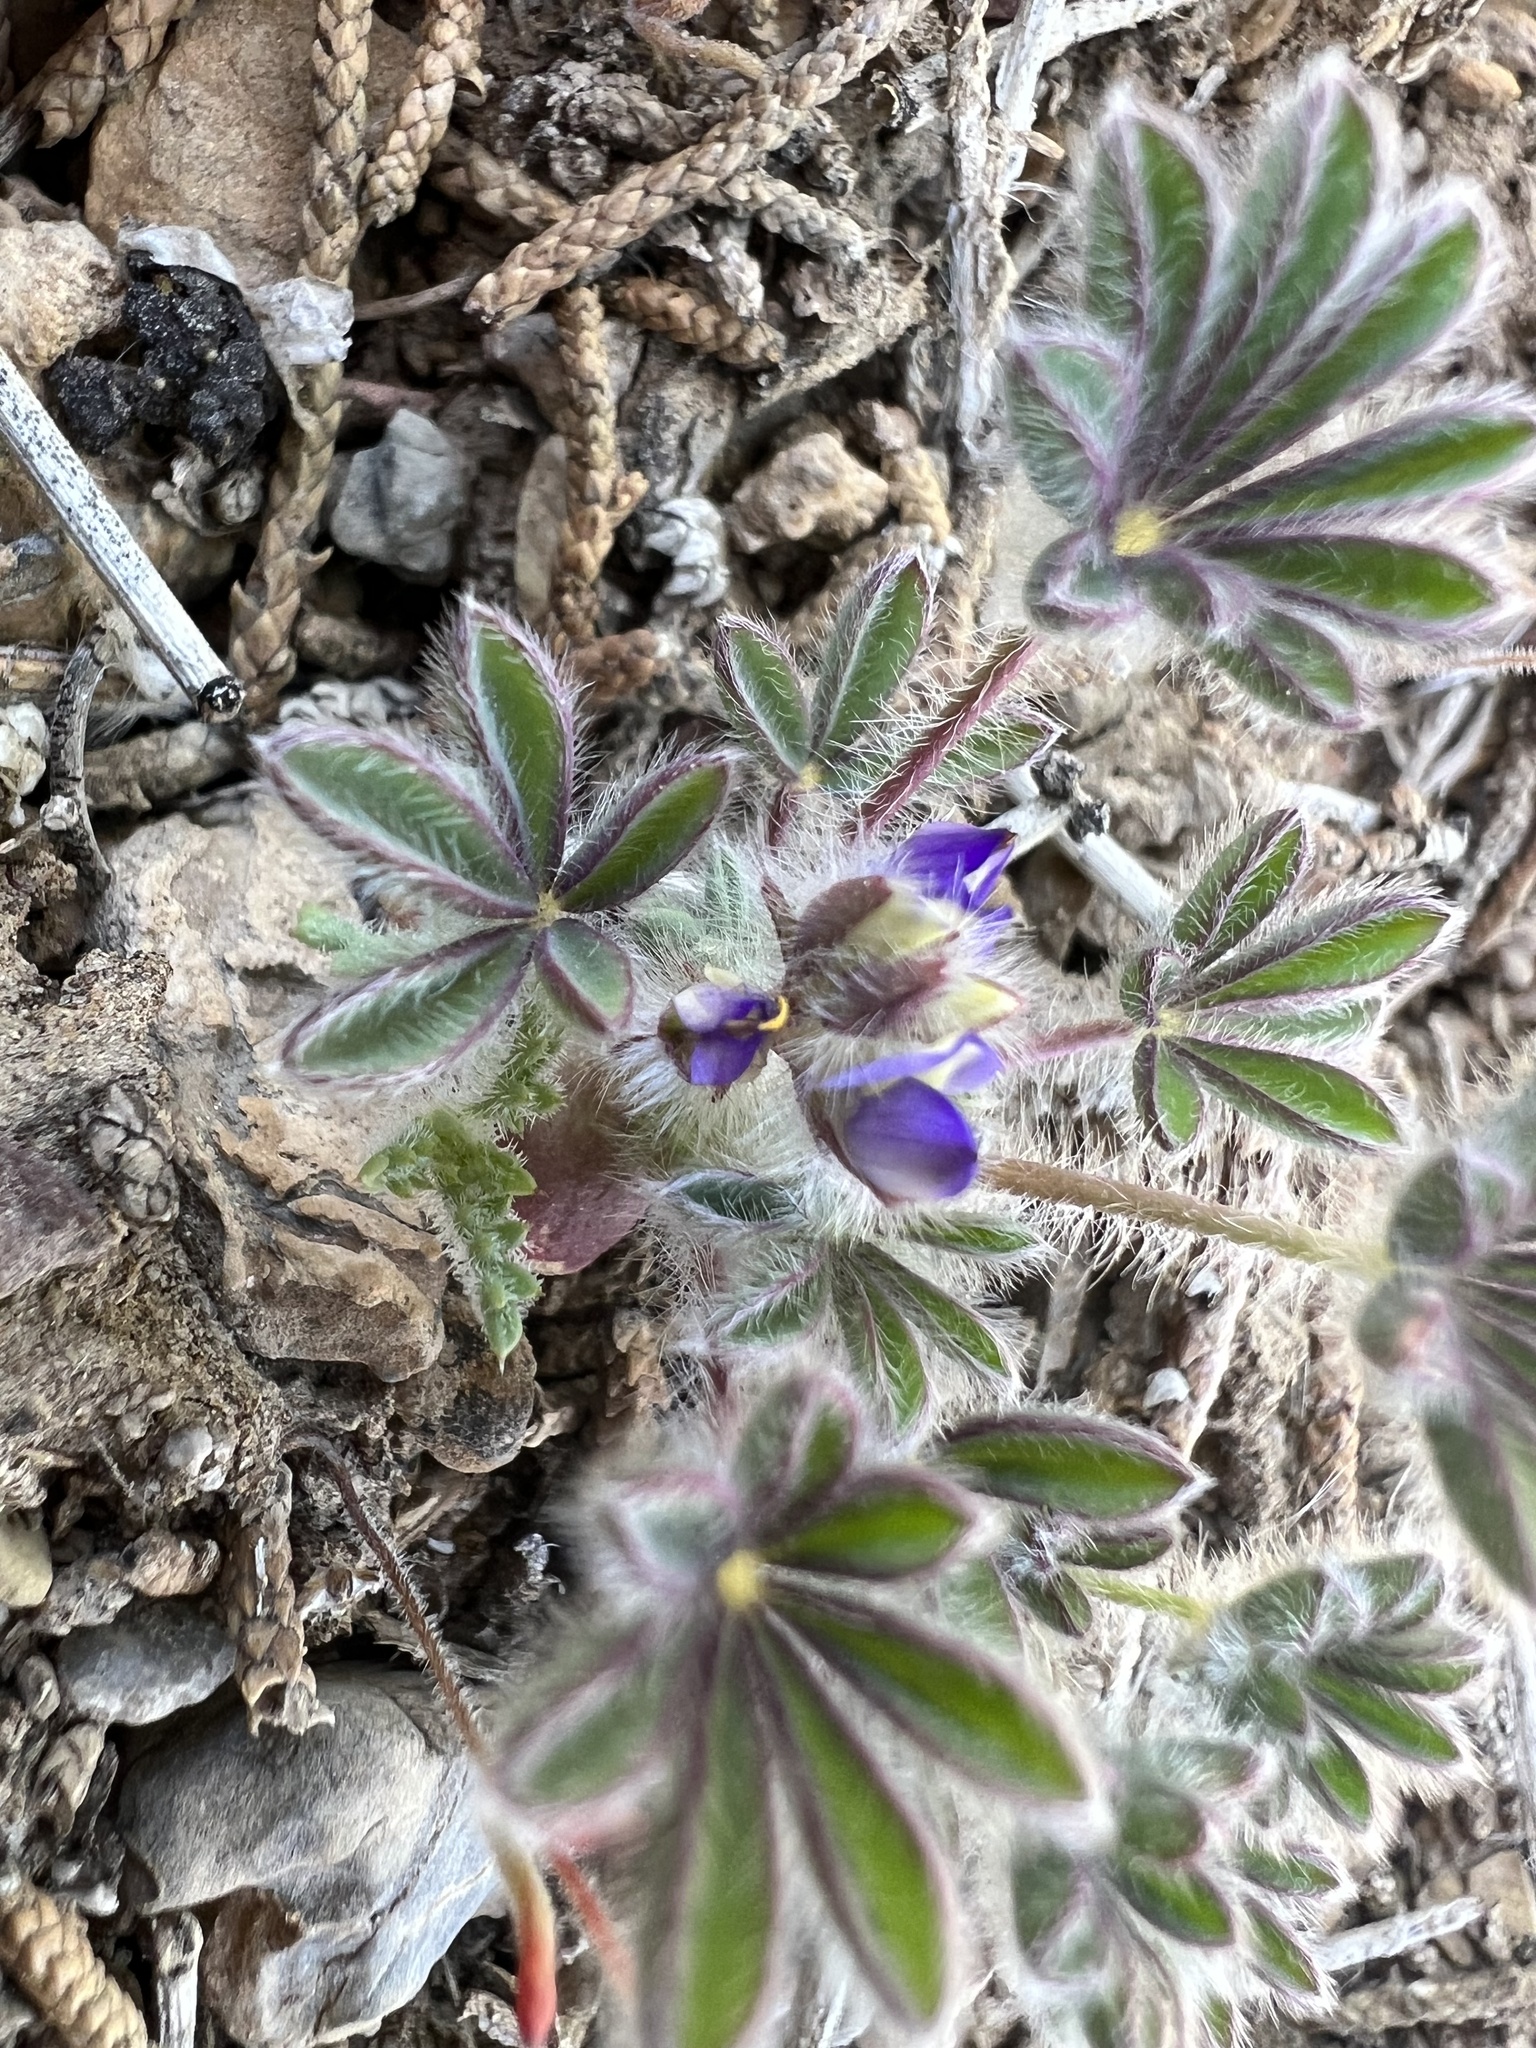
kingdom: Plantae
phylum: Tracheophyta
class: Magnoliopsida
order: Fabales
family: Fabaceae
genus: Lupinus
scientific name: Lupinus brevicaulis
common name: Sand lupine
